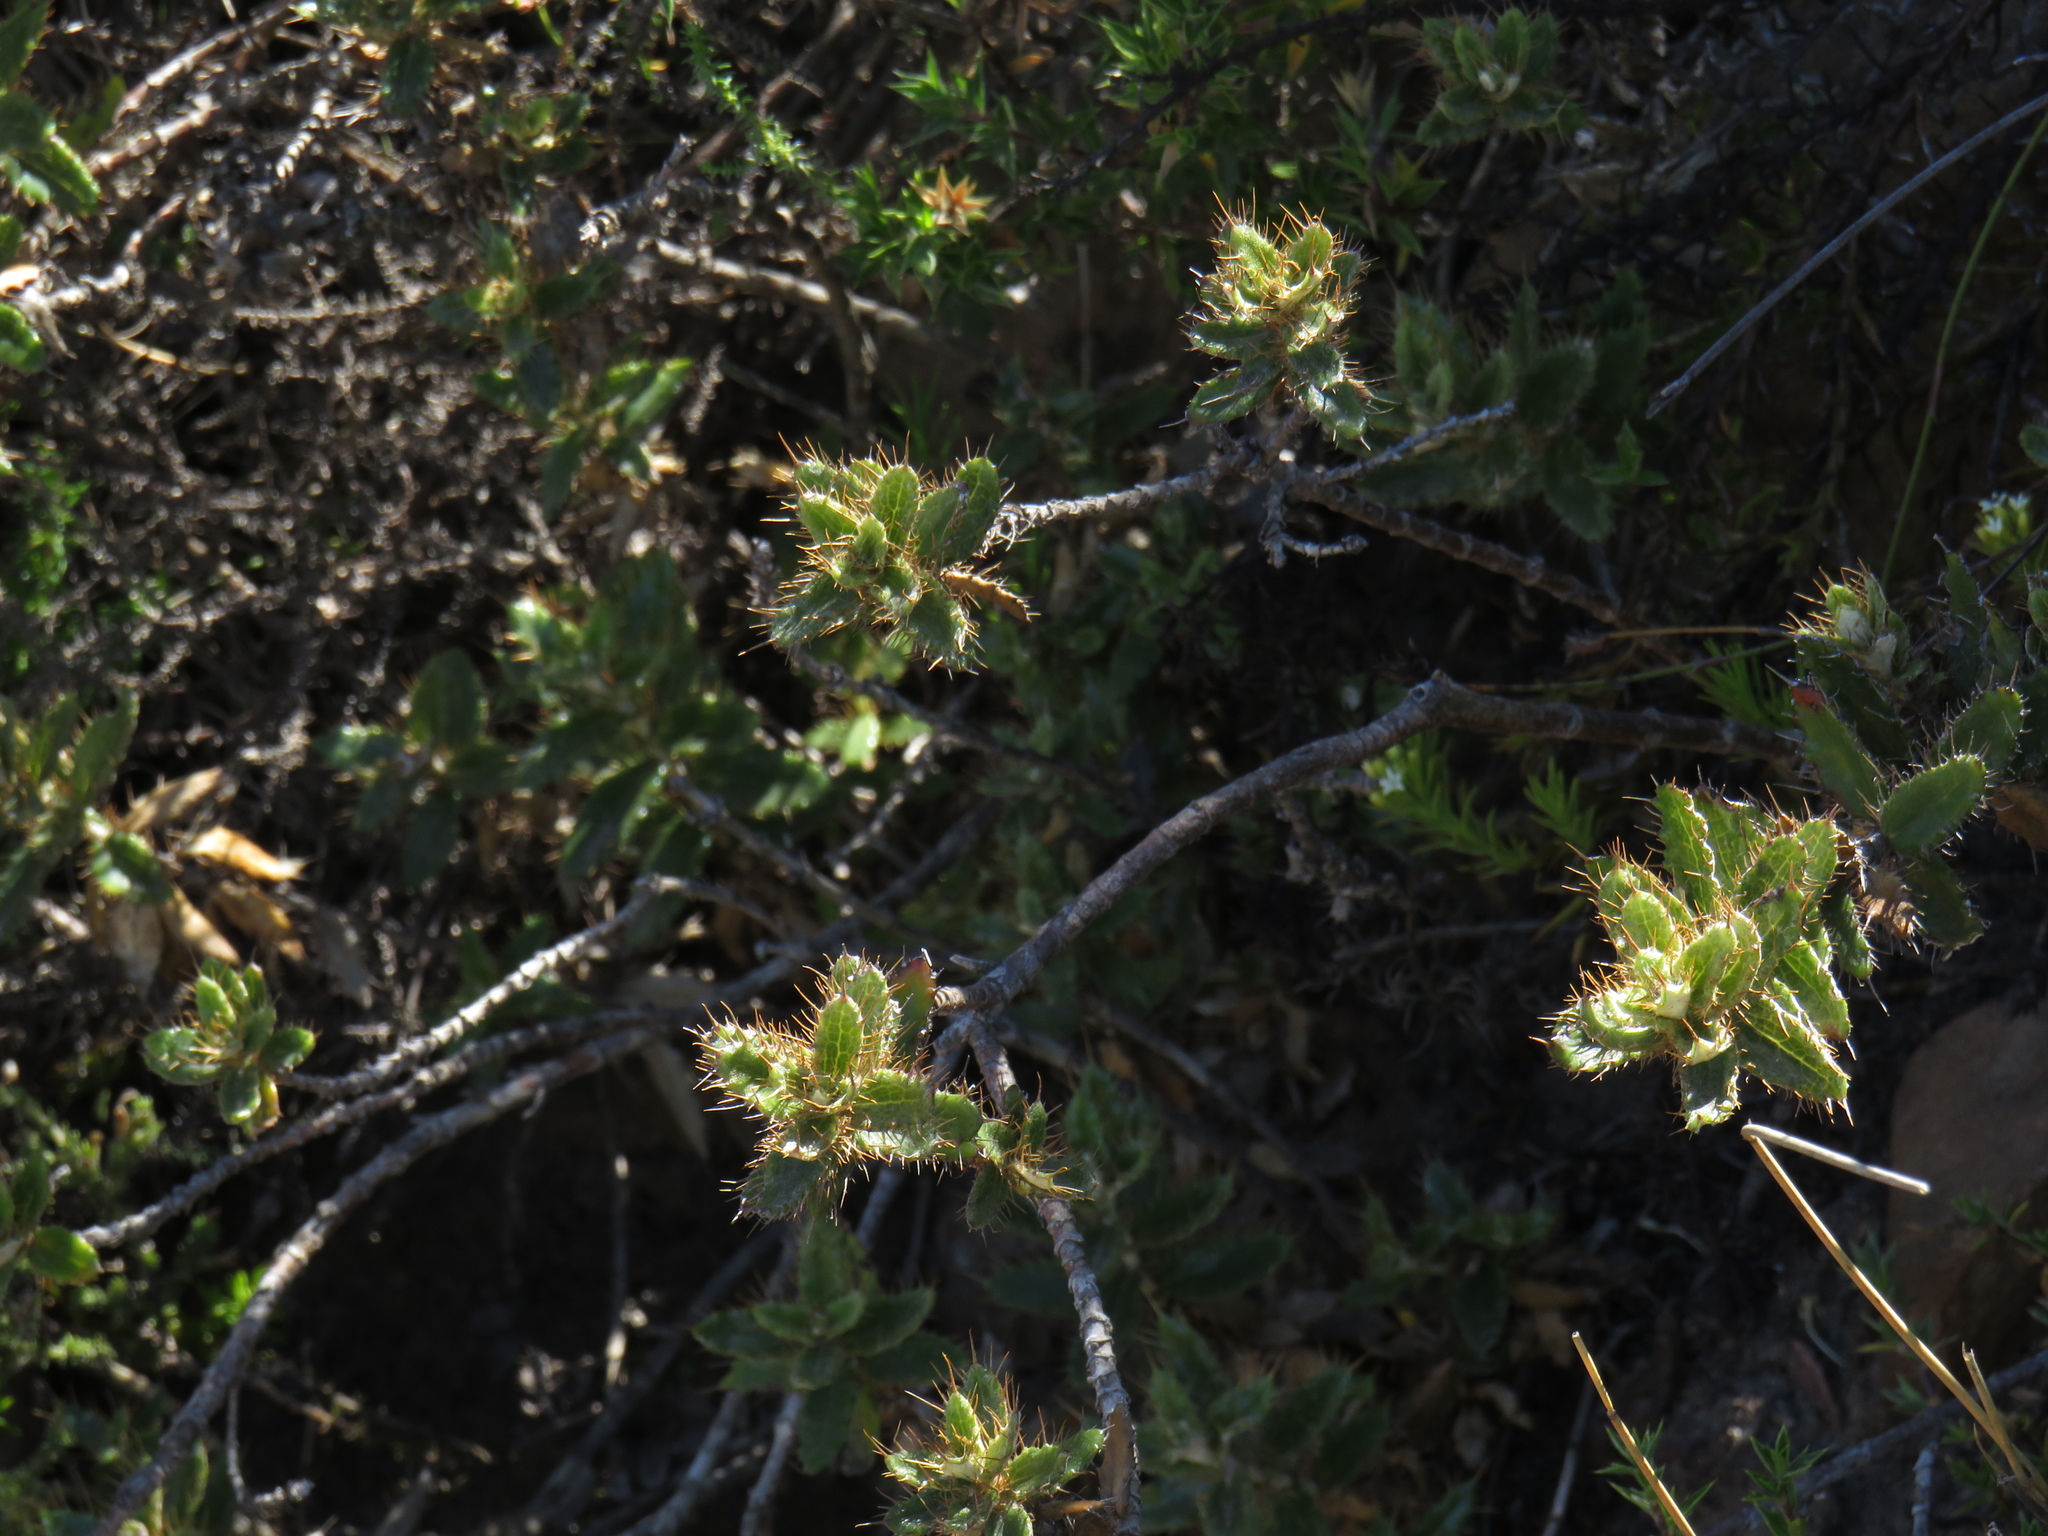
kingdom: Plantae
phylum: Tracheophyta
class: Magnoliopsida
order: Asterales
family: Asteraceae
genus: Berkheya
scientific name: Berkheya barbata
